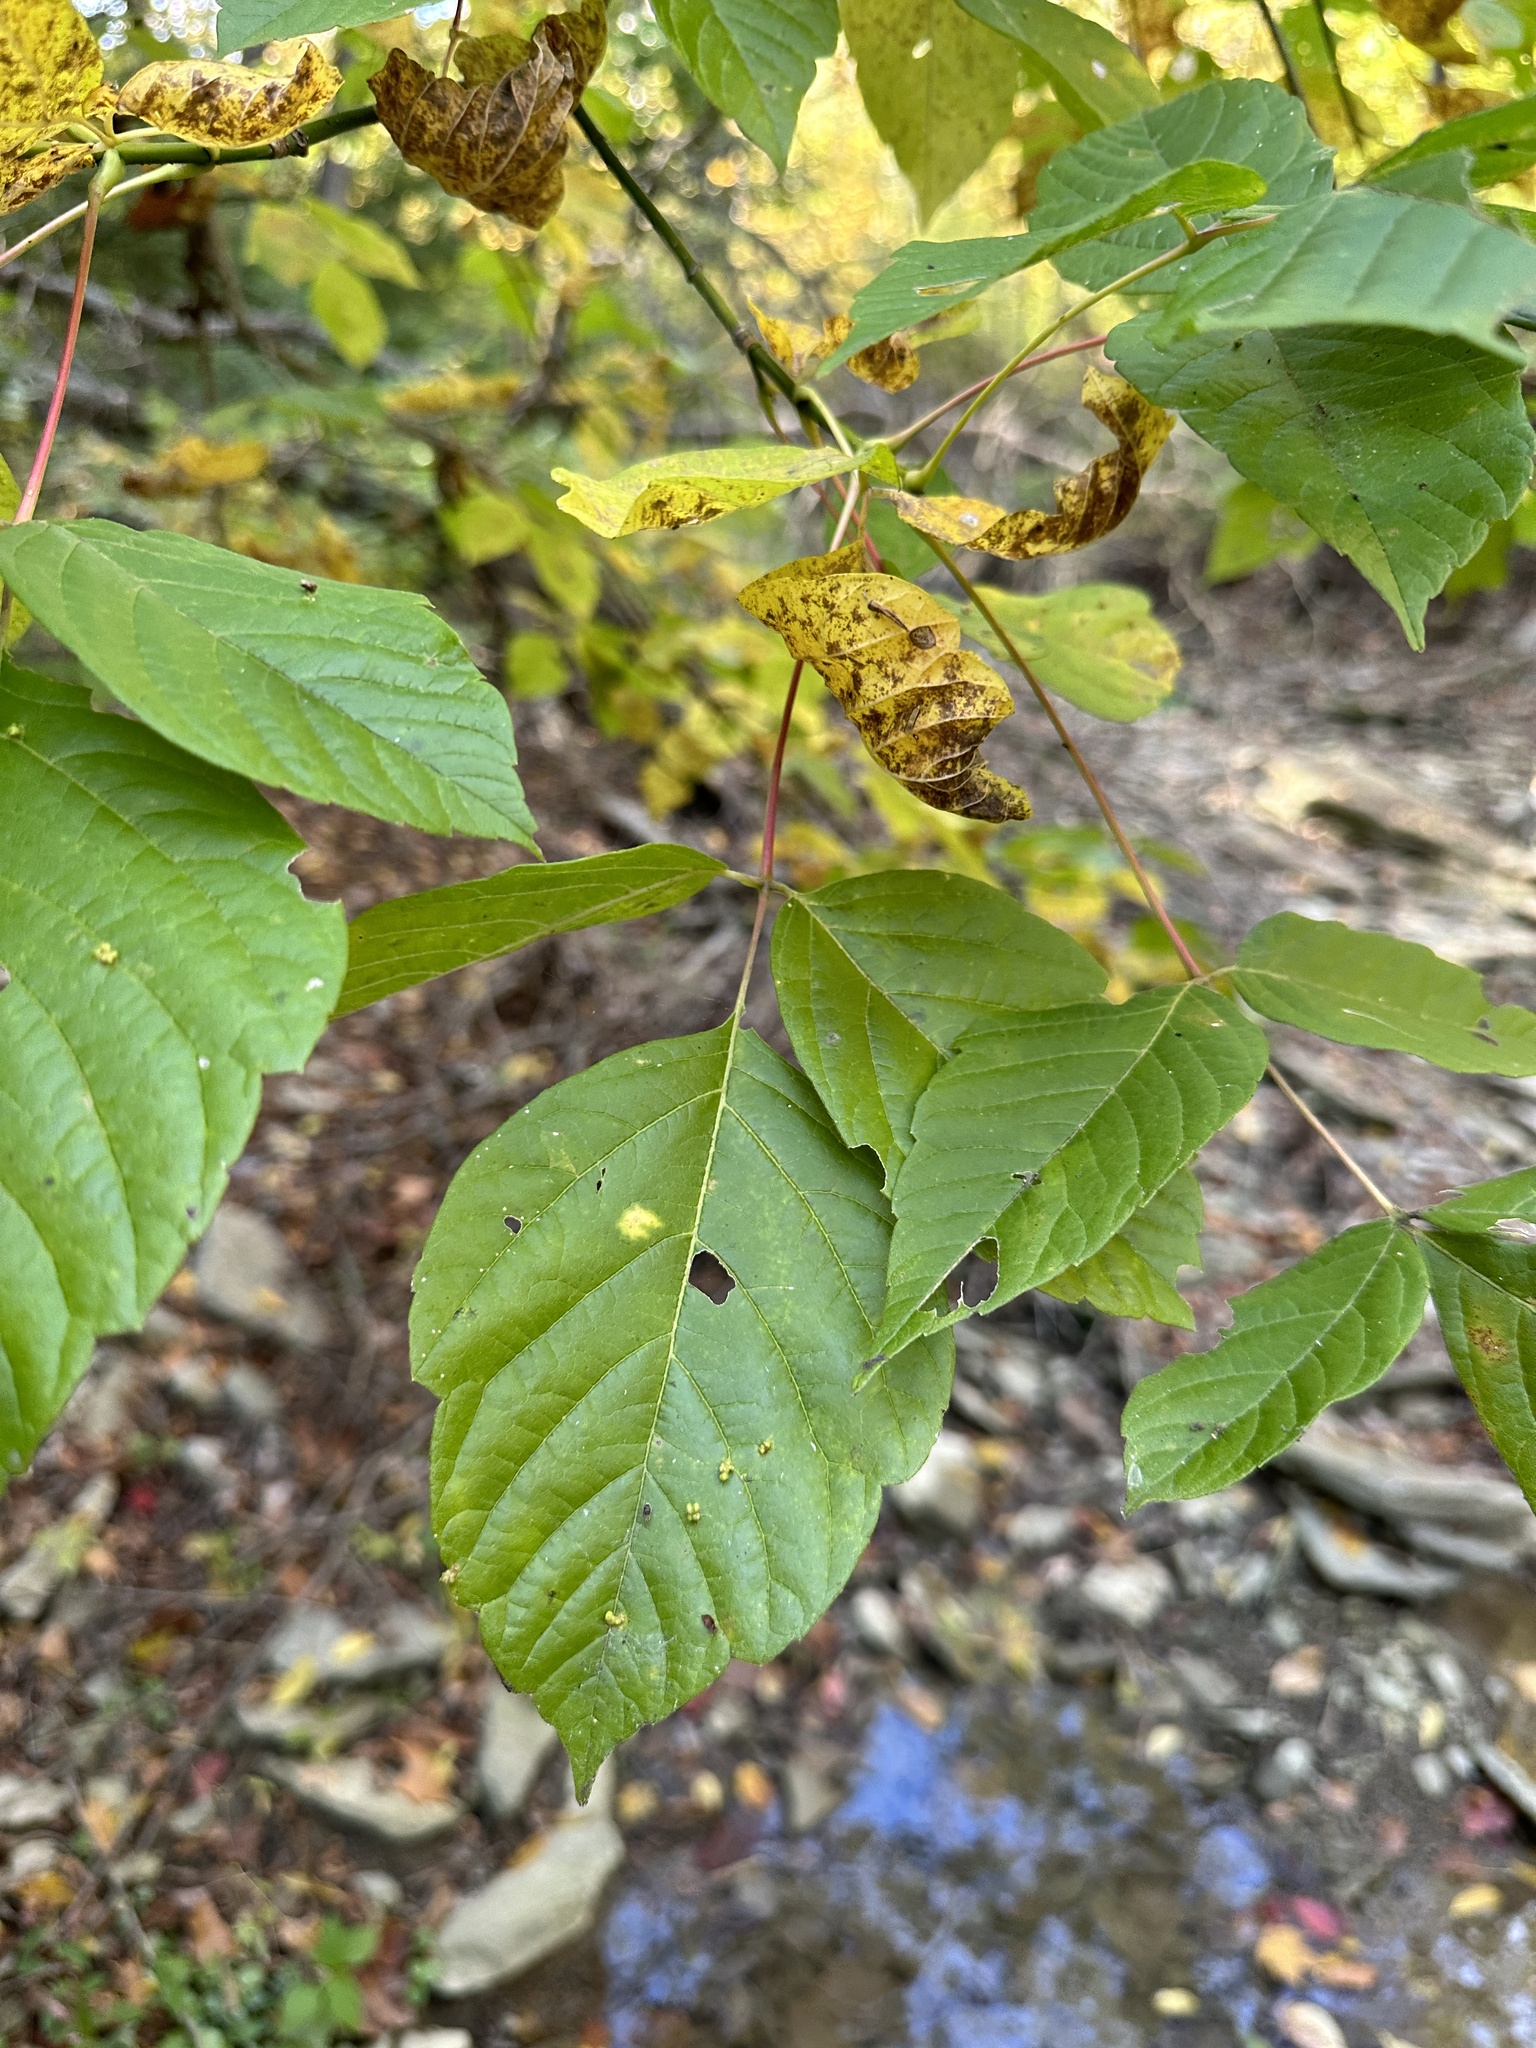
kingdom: Plantae
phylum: Tracheophyta
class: Magnoliopsida
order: Sapindales
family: Sapindaceae
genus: Acer
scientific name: Acer negundo
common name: Ashleaf maple
